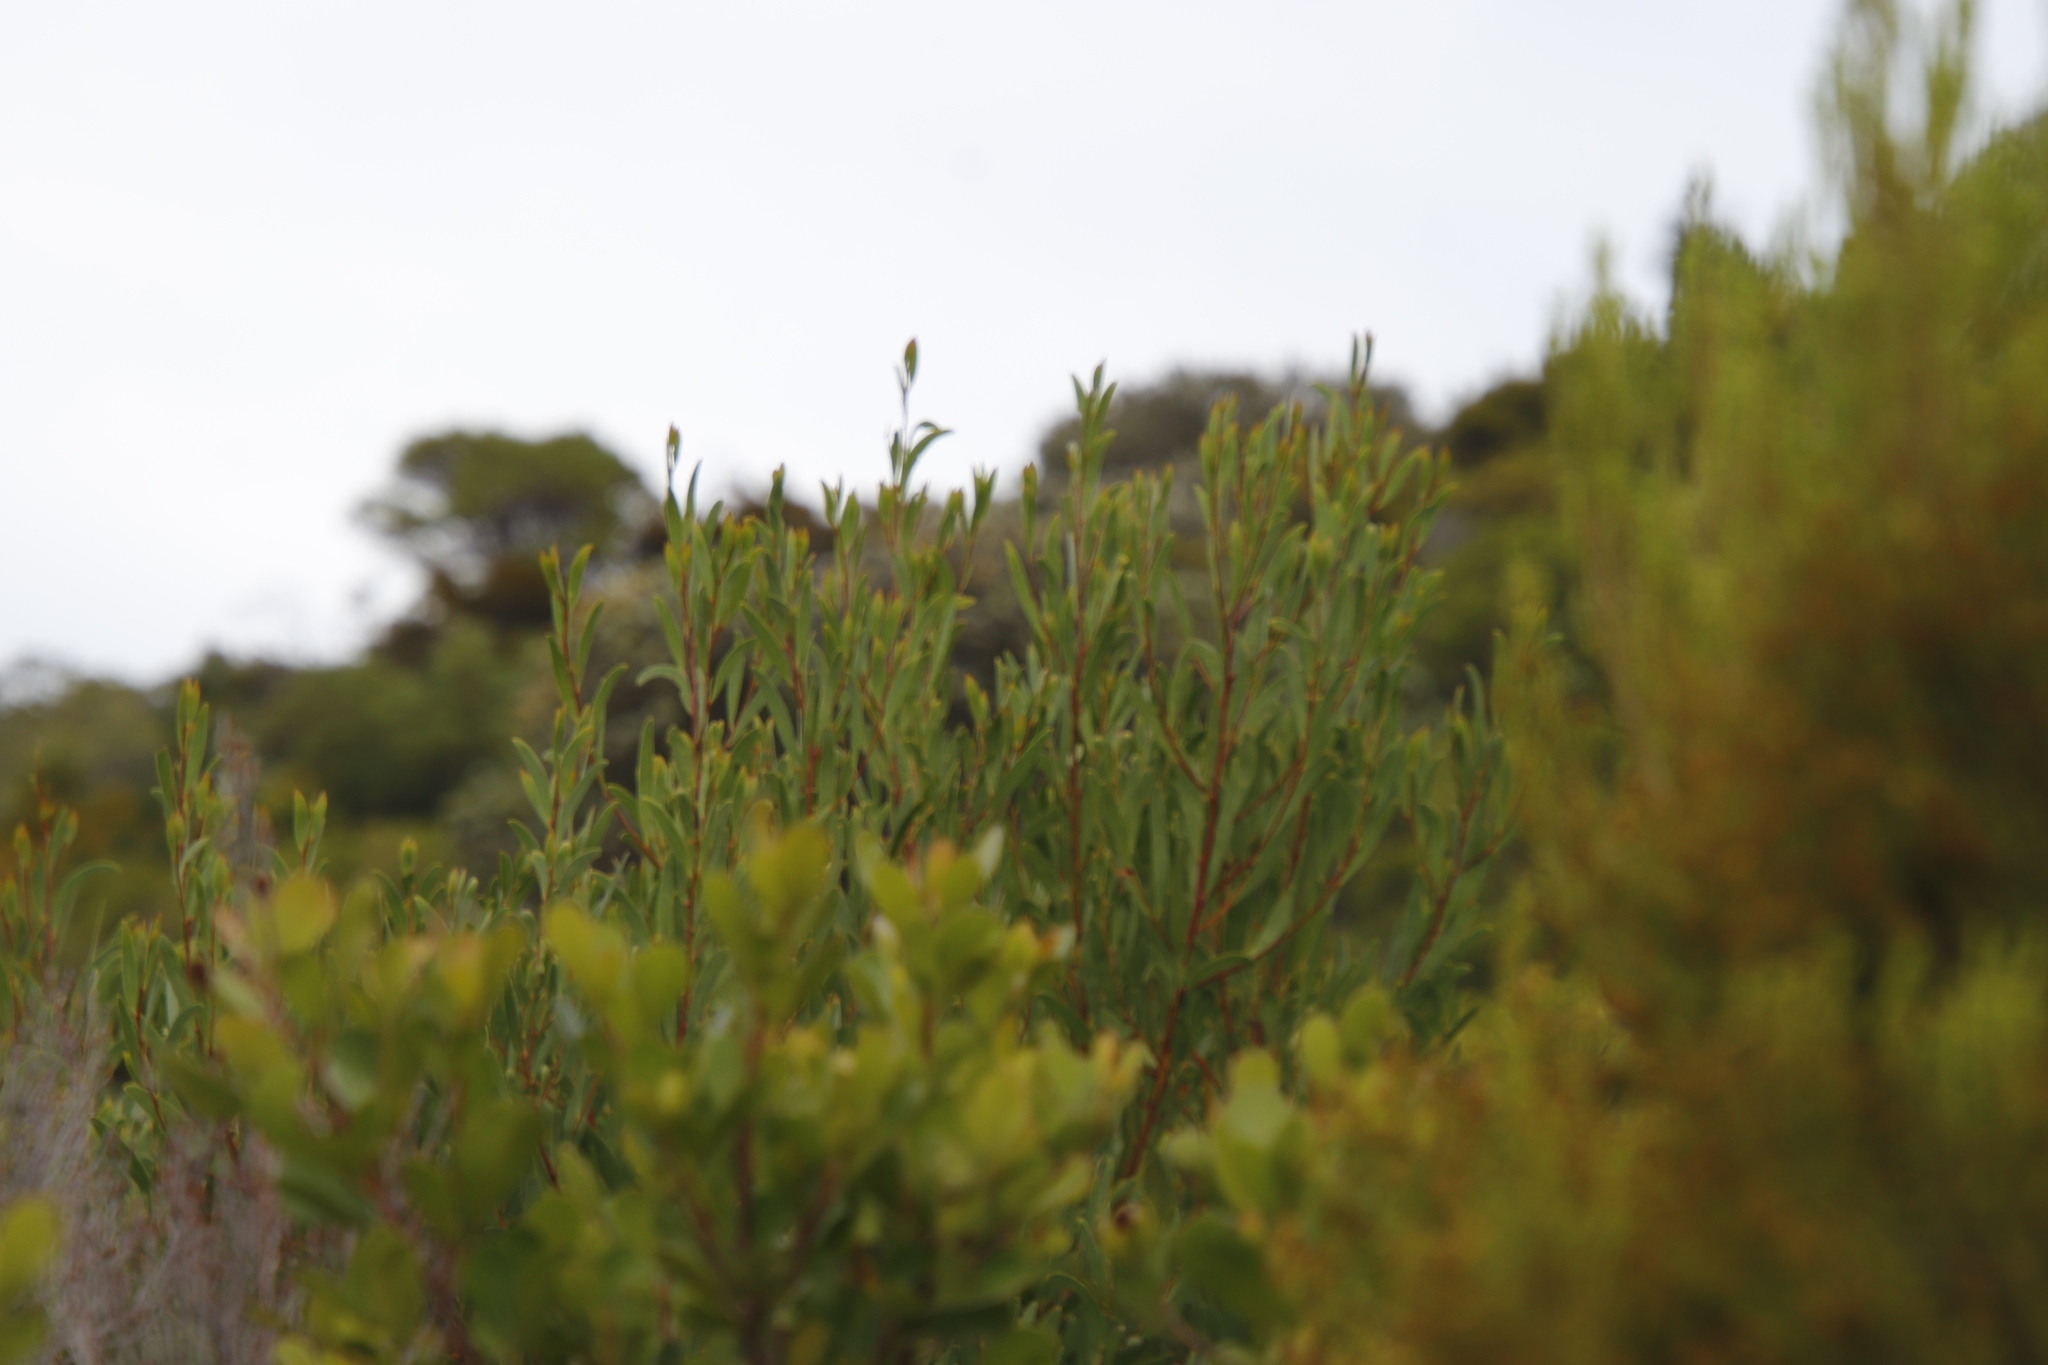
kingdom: Plantae
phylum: Tracheophyta
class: Magnoliopsida
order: Fabales
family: Fabaceae
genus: Acacia
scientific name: Acacia cyclops
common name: Coastal wattle
